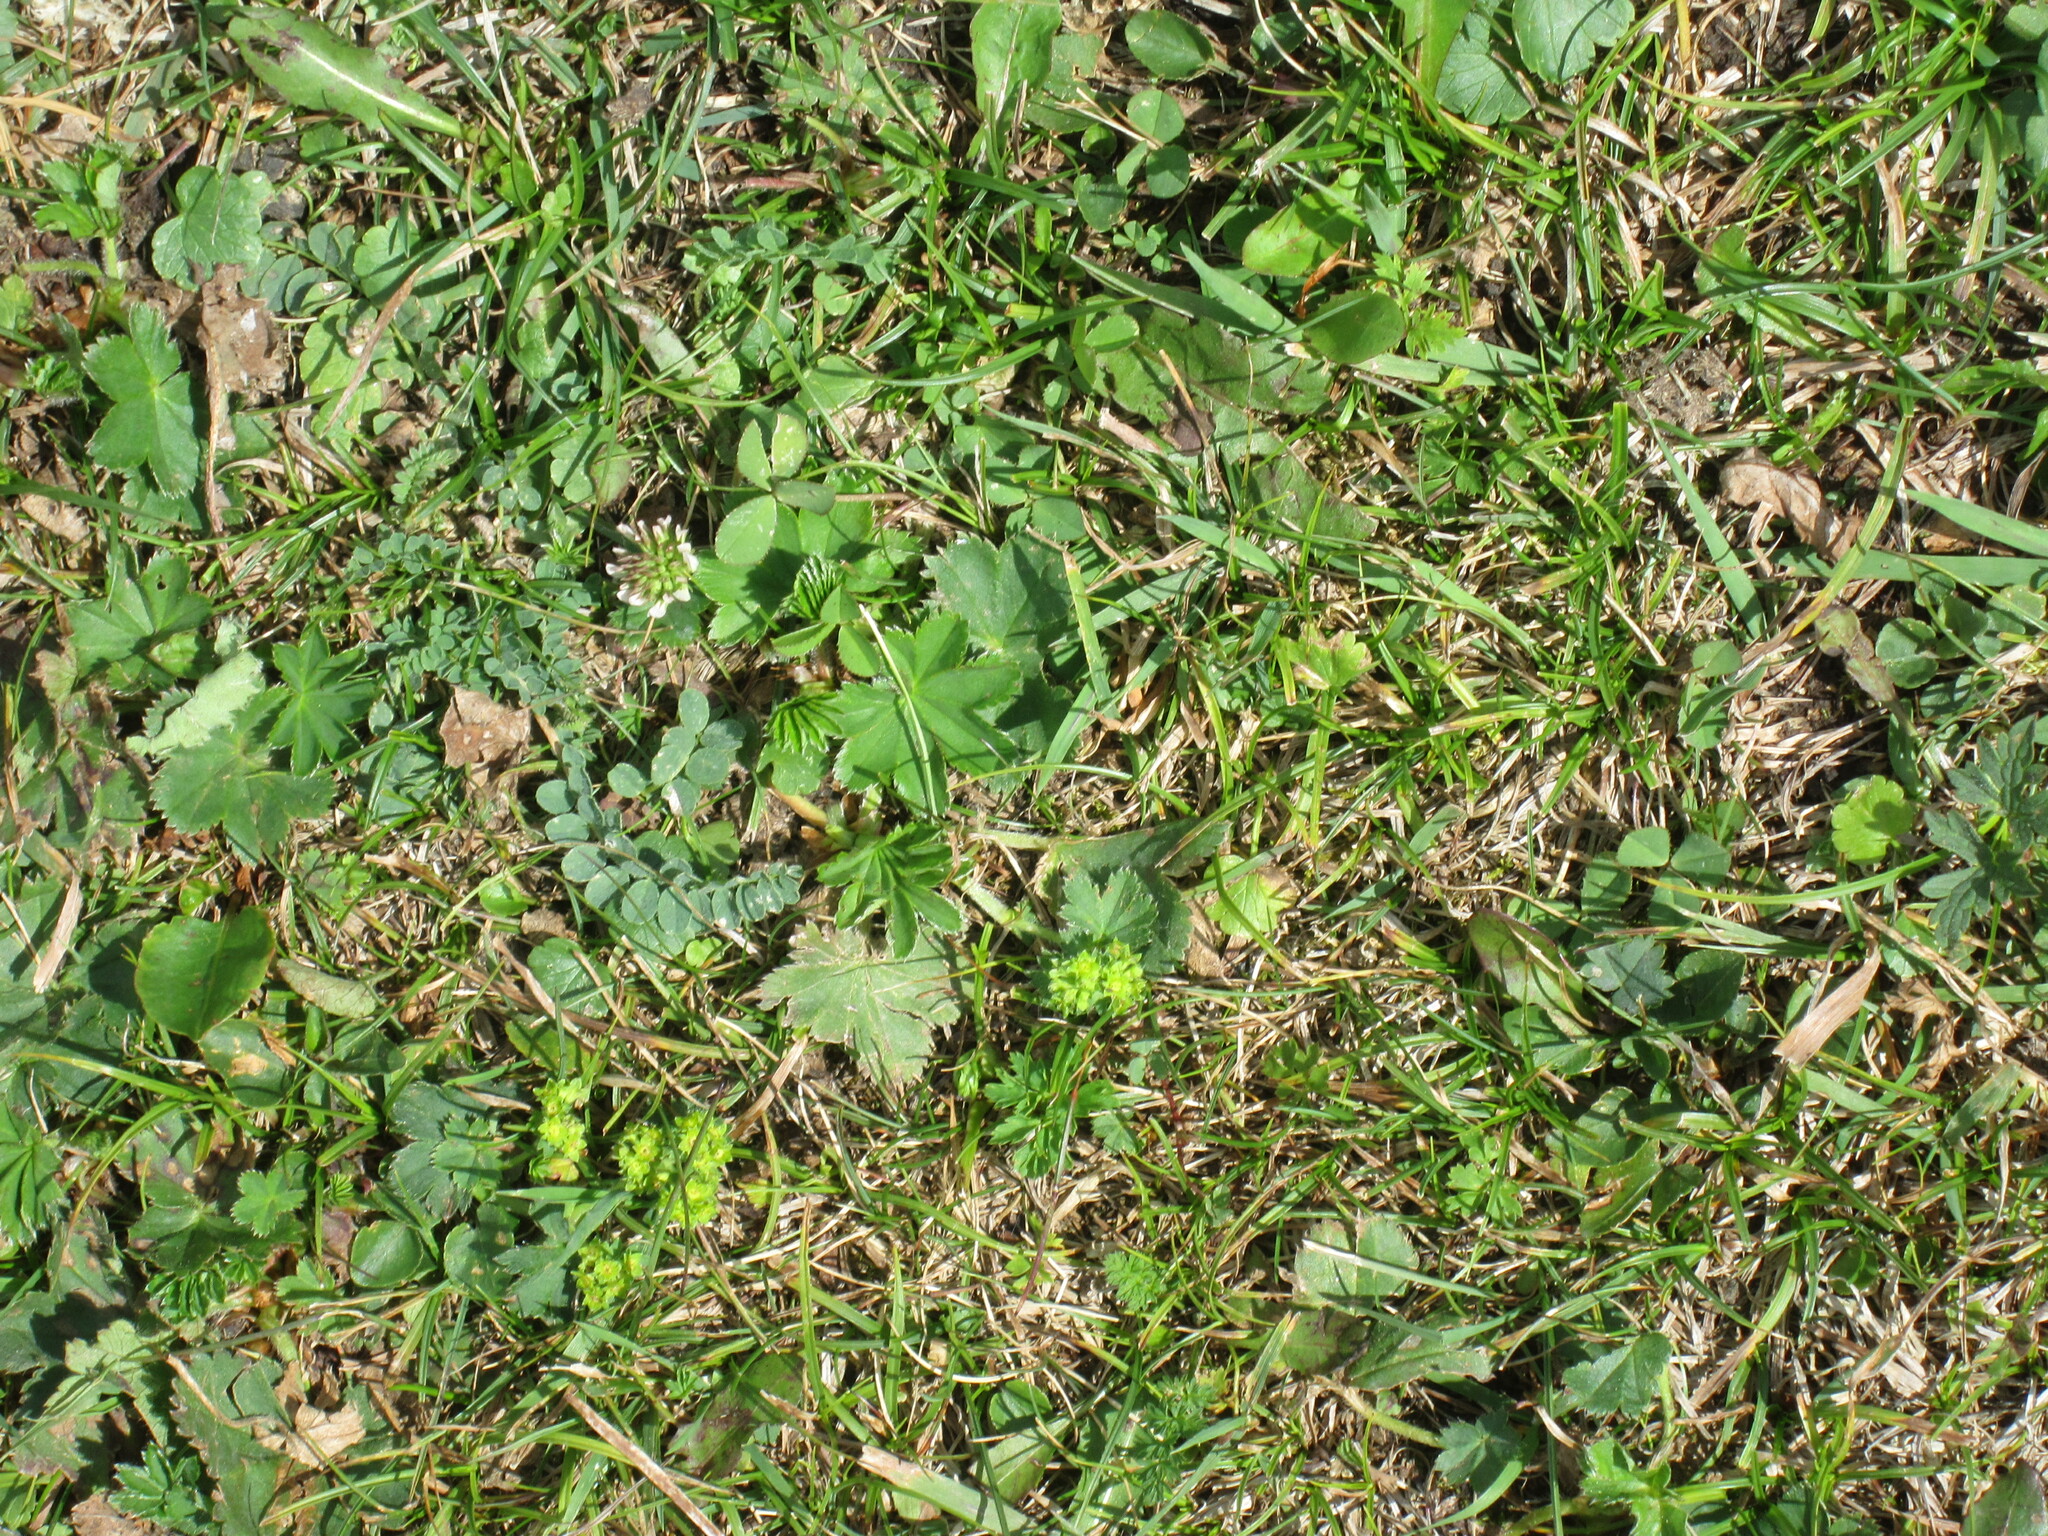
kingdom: Plantae
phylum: Tracheophyta
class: Magnoliopsida
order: Fabales
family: Fabaceae
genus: Trifolium
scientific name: Trifolium repens
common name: White clover
